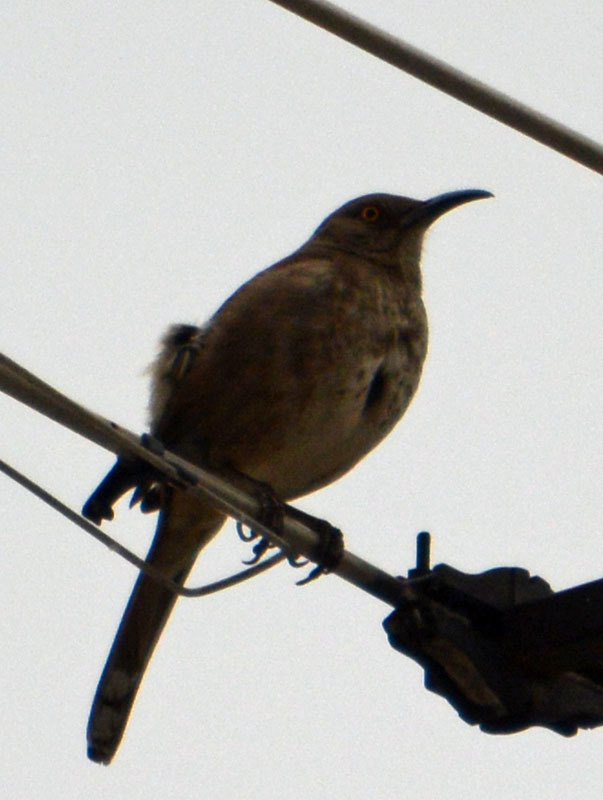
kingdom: Animalia
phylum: Chordata
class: Aves
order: Passeriformes
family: Mimidae
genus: Toxostoma
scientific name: Toxostoma curvirostre
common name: Curve-billed thrasher
